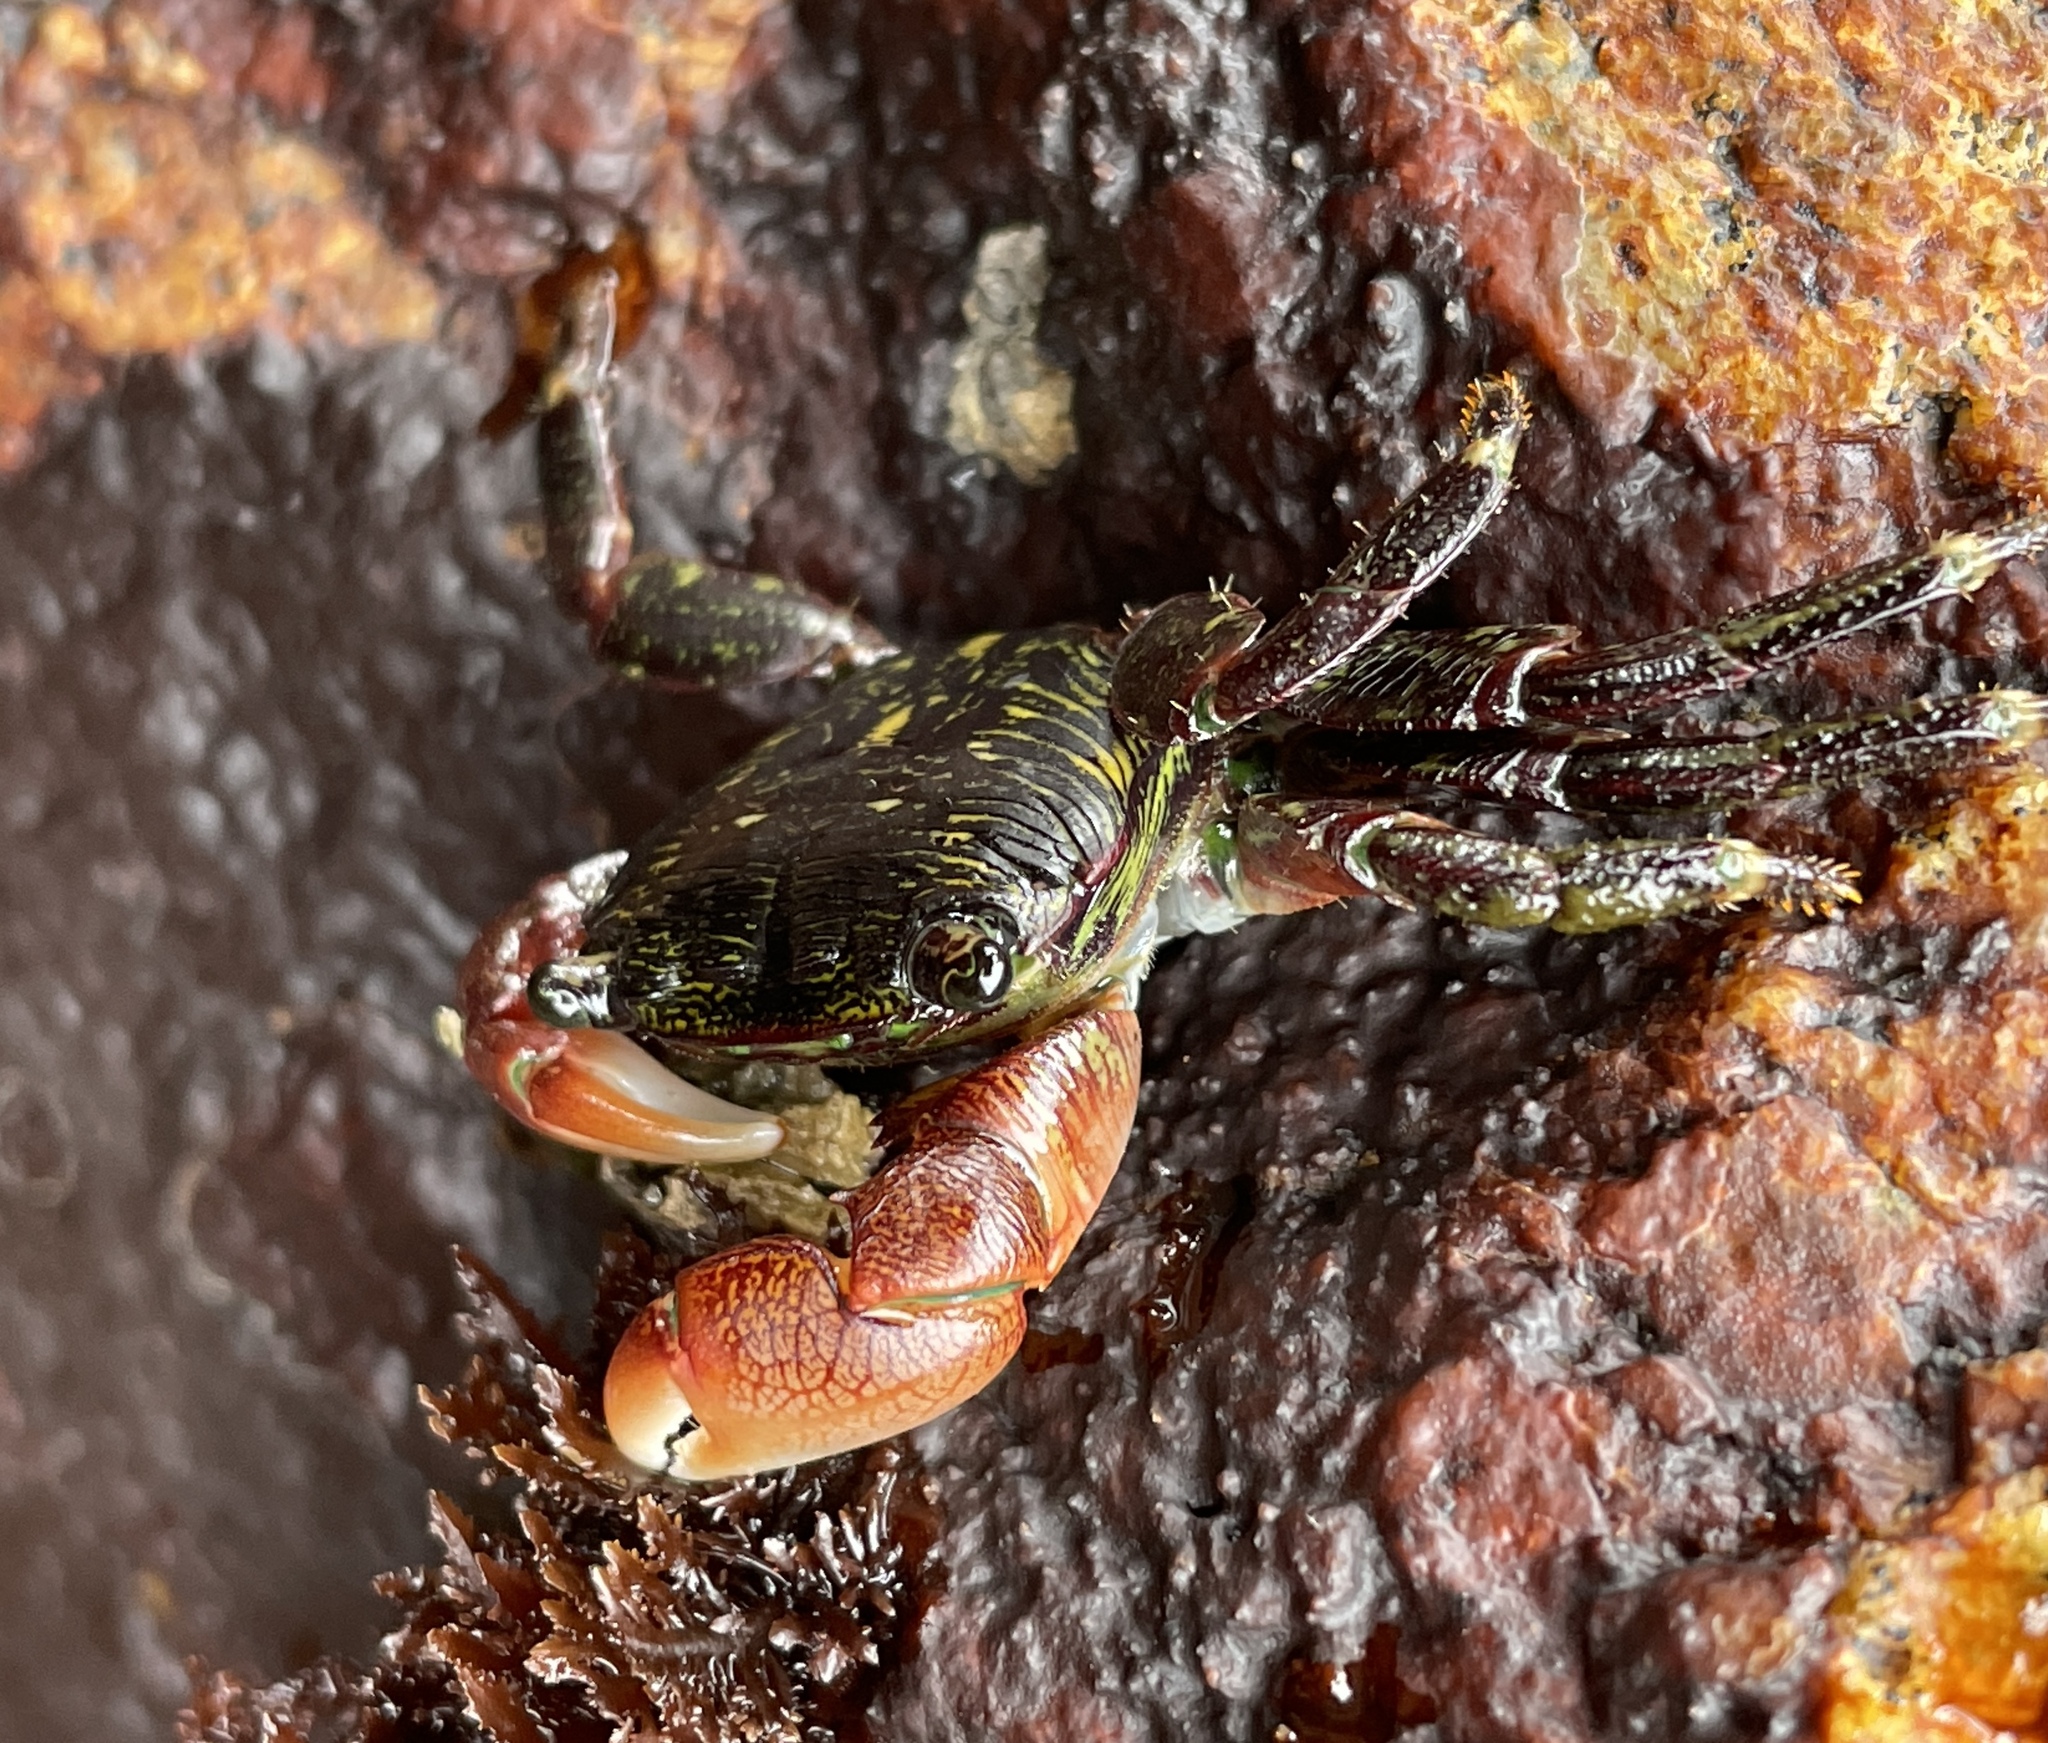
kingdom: Animalia
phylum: Arthropoda
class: Malacostraca
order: Decapoda
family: Grapsidae
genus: Pachygrapsus
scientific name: Pachygrapsus crassipes
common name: Striped shore crab
